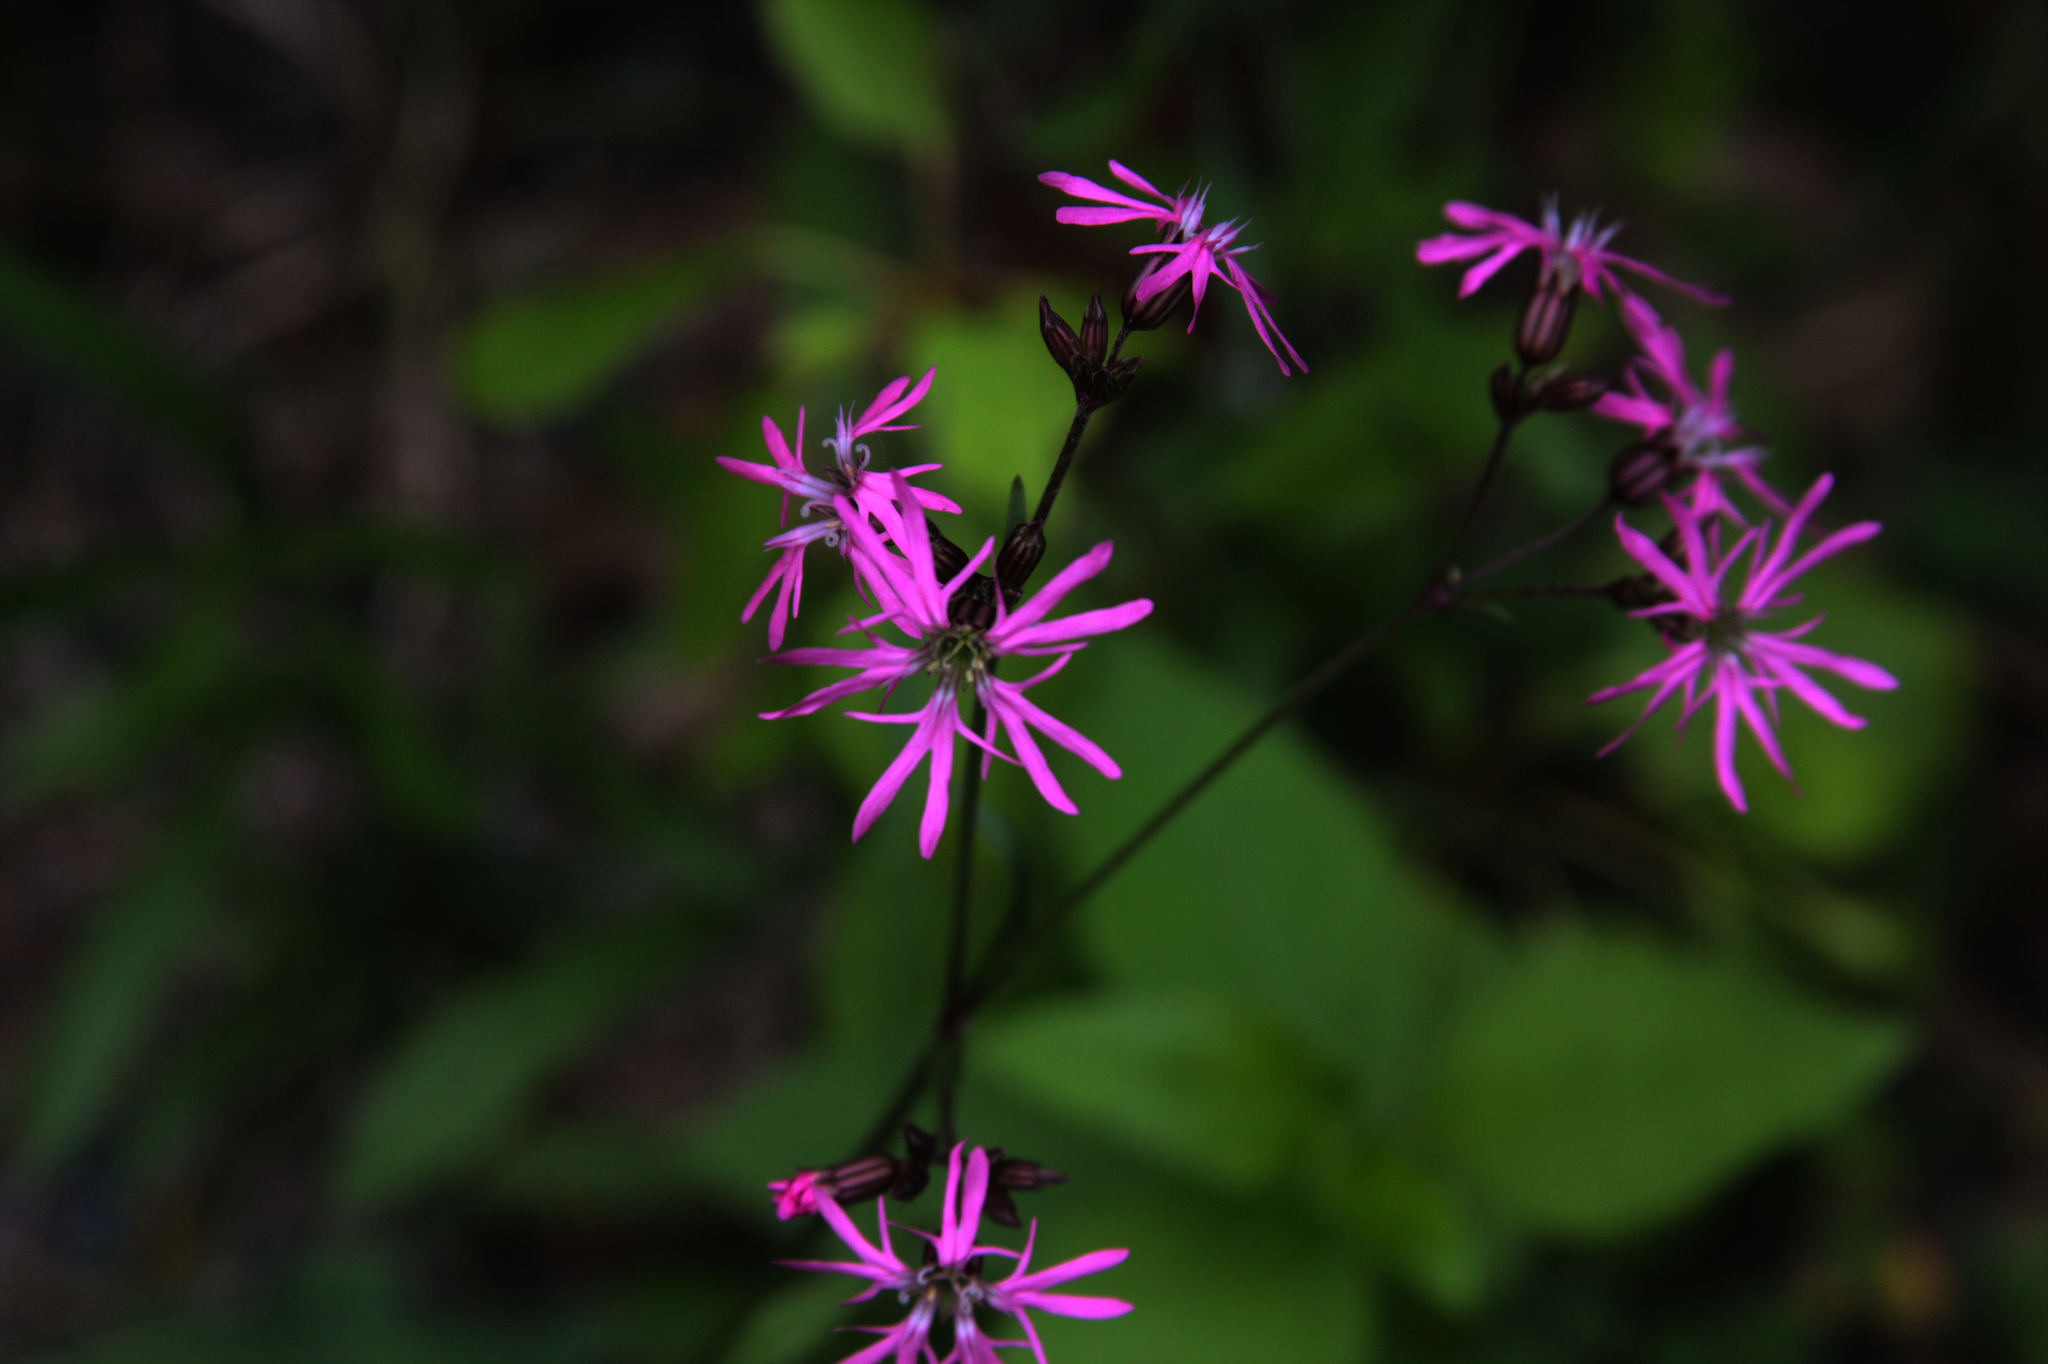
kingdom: Plantae
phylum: Tracheophyta
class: Magnoliopsida
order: Caryophyllales
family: Caryophyllaceae
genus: Silene
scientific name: Silene flos-cuculi
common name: Ragged-robin
